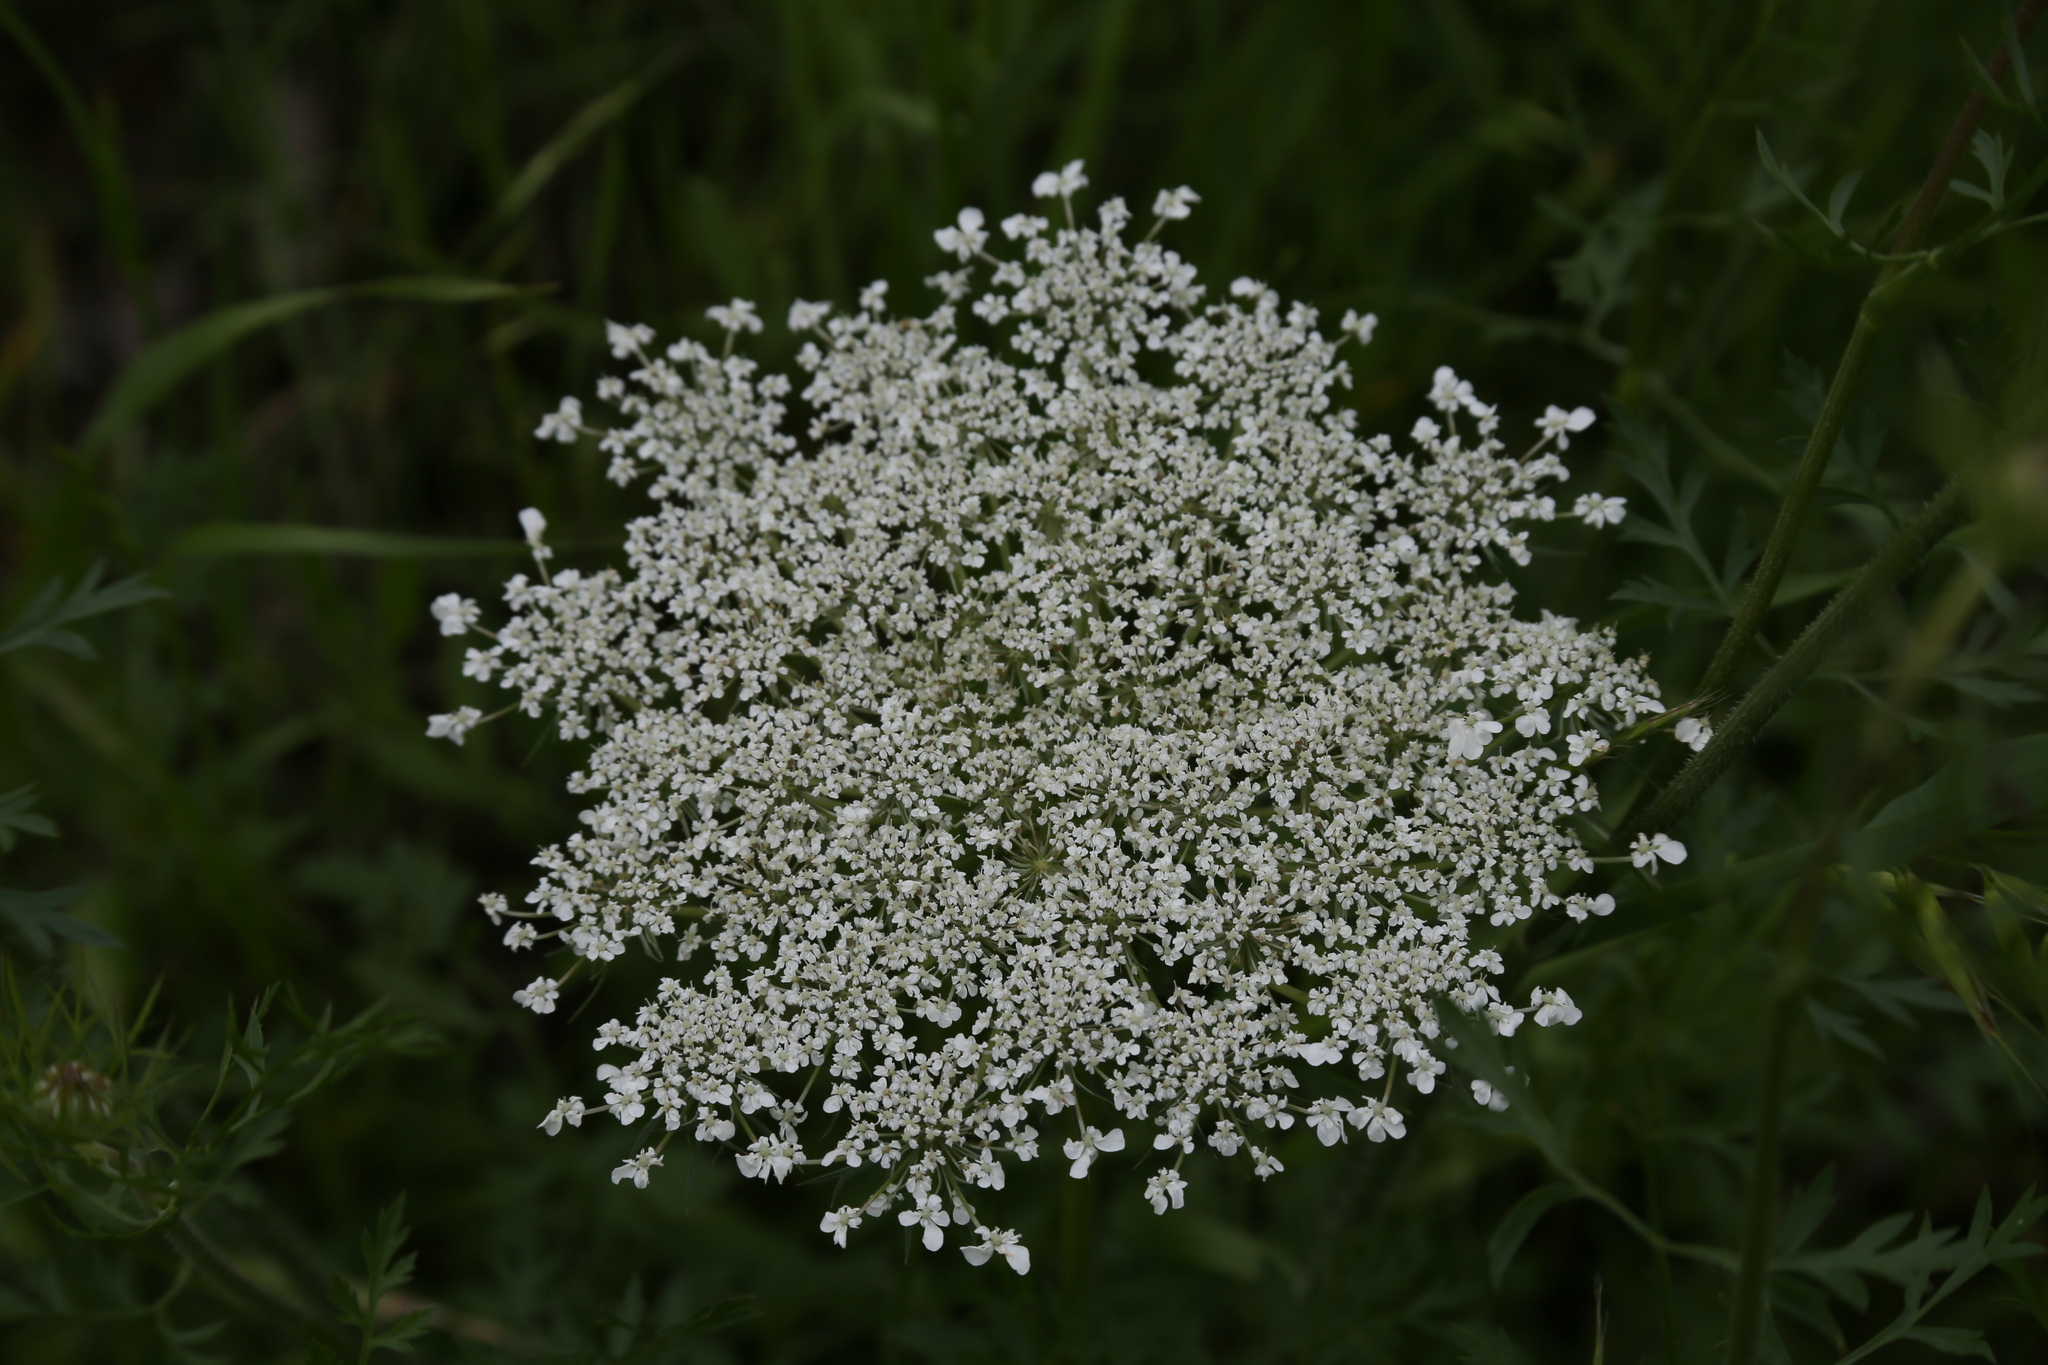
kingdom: Plantae
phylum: Tracheophyta
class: Magnoliopsida
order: Apiales
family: Apiaceae
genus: Daucus
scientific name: Daucus carota
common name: Wild carrot
